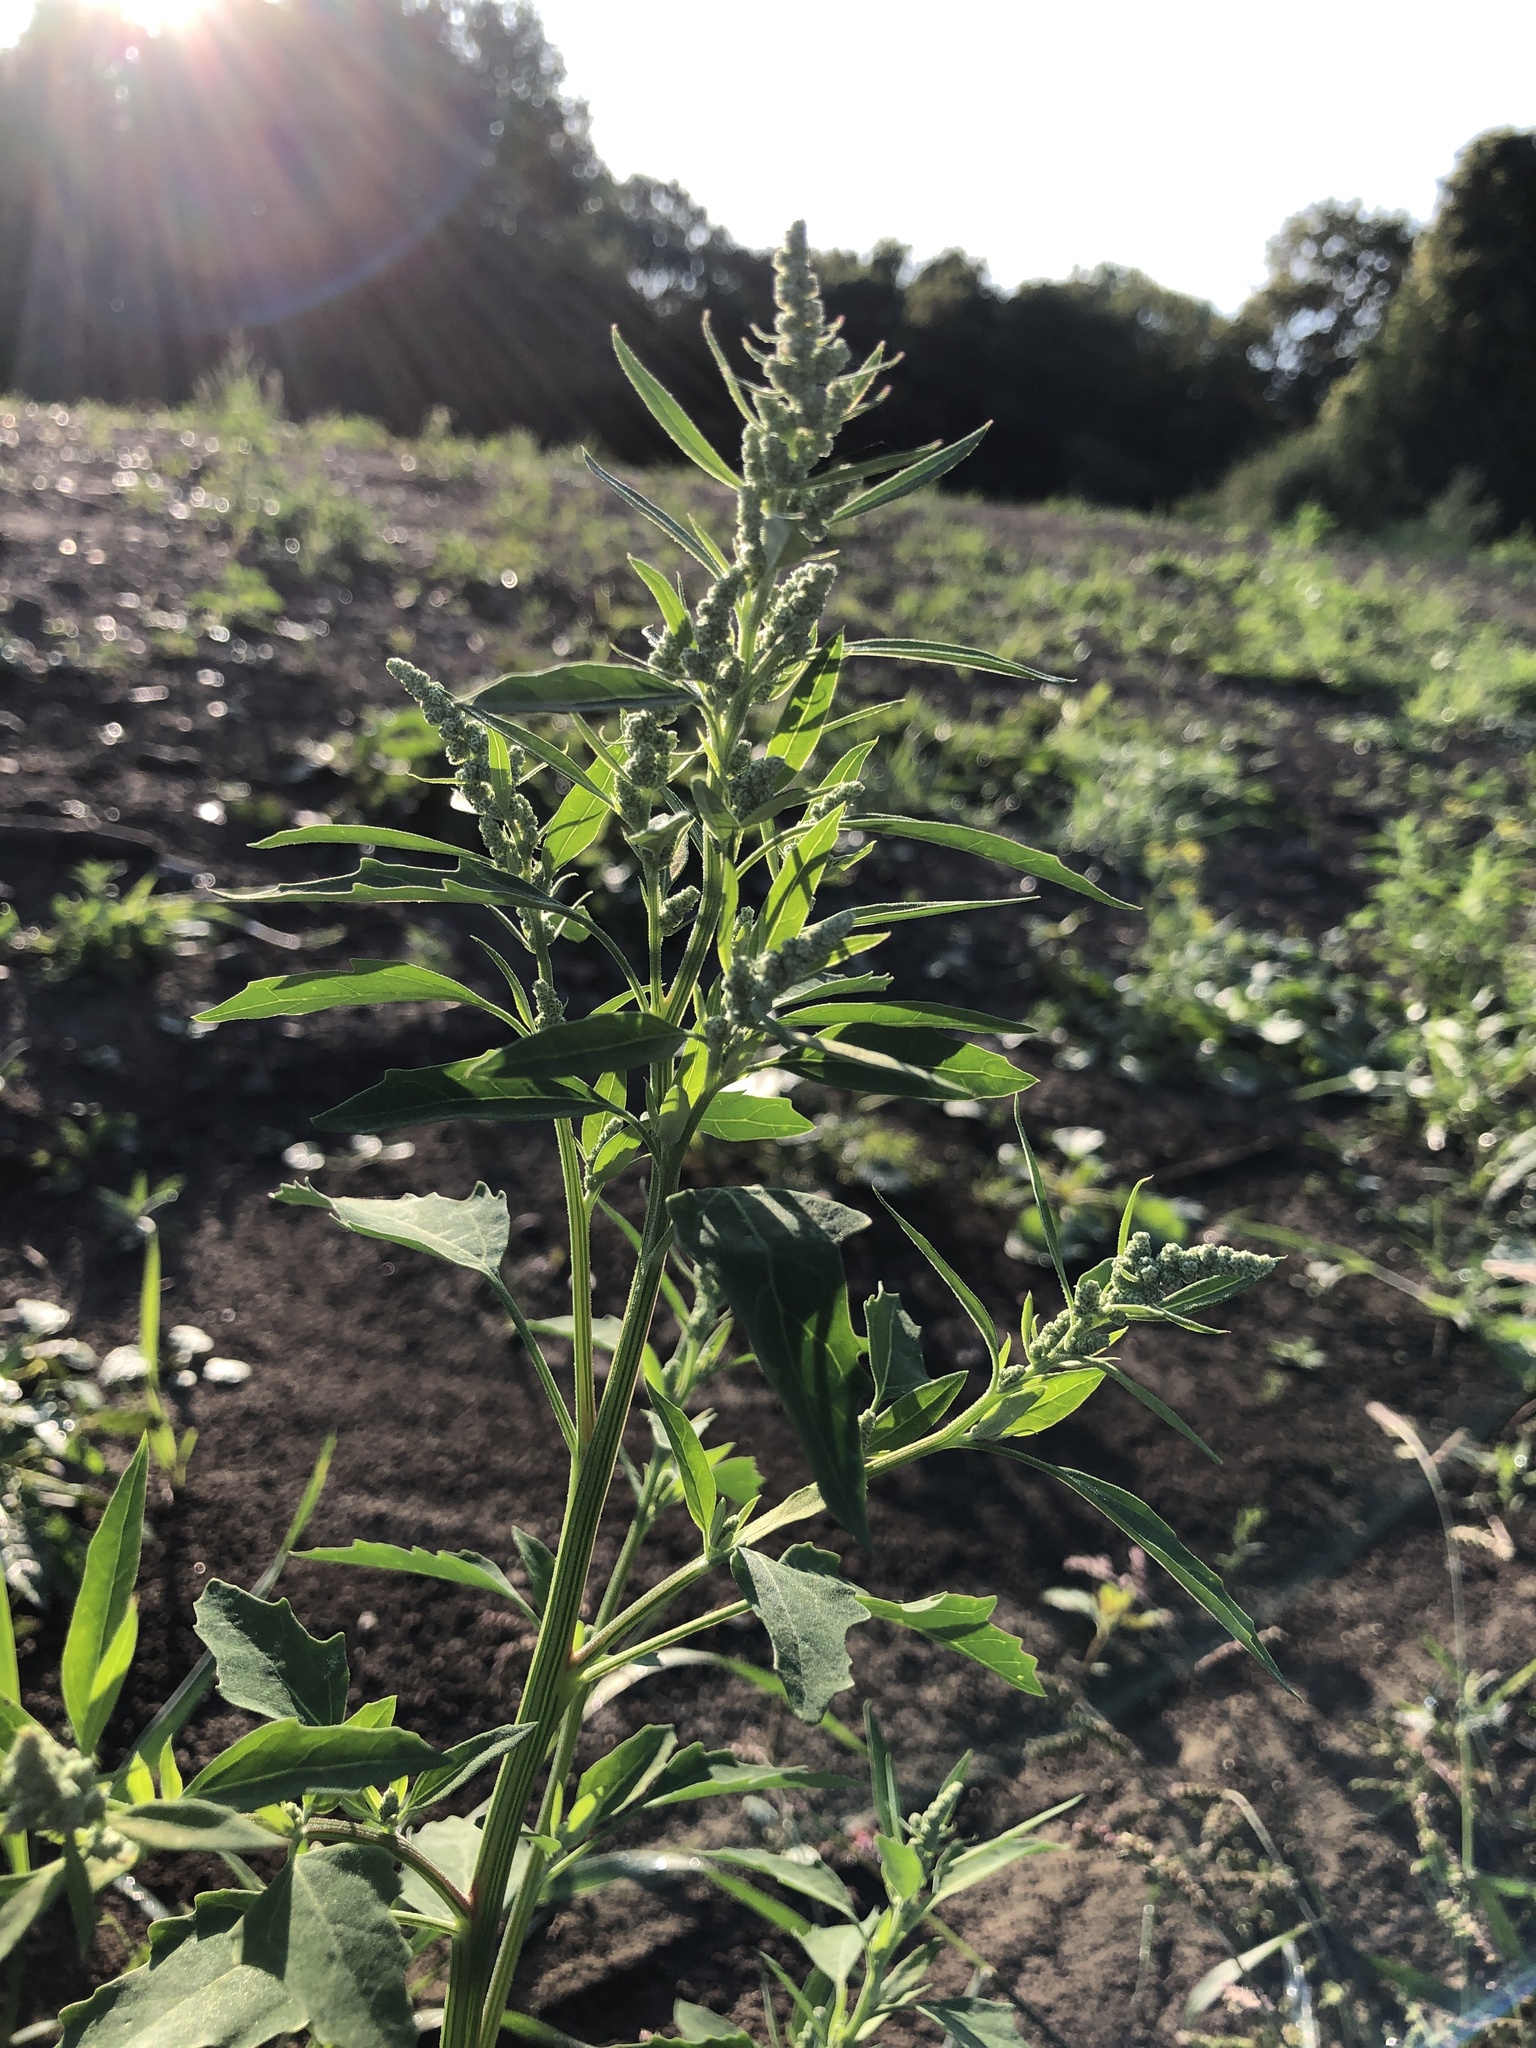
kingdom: Plantae
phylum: Tracheophyta
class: Magnoliopsida
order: Caryophyllales
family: Amaranthaceae
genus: Chenopodium
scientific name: Chenopodium album
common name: Fat-hen
